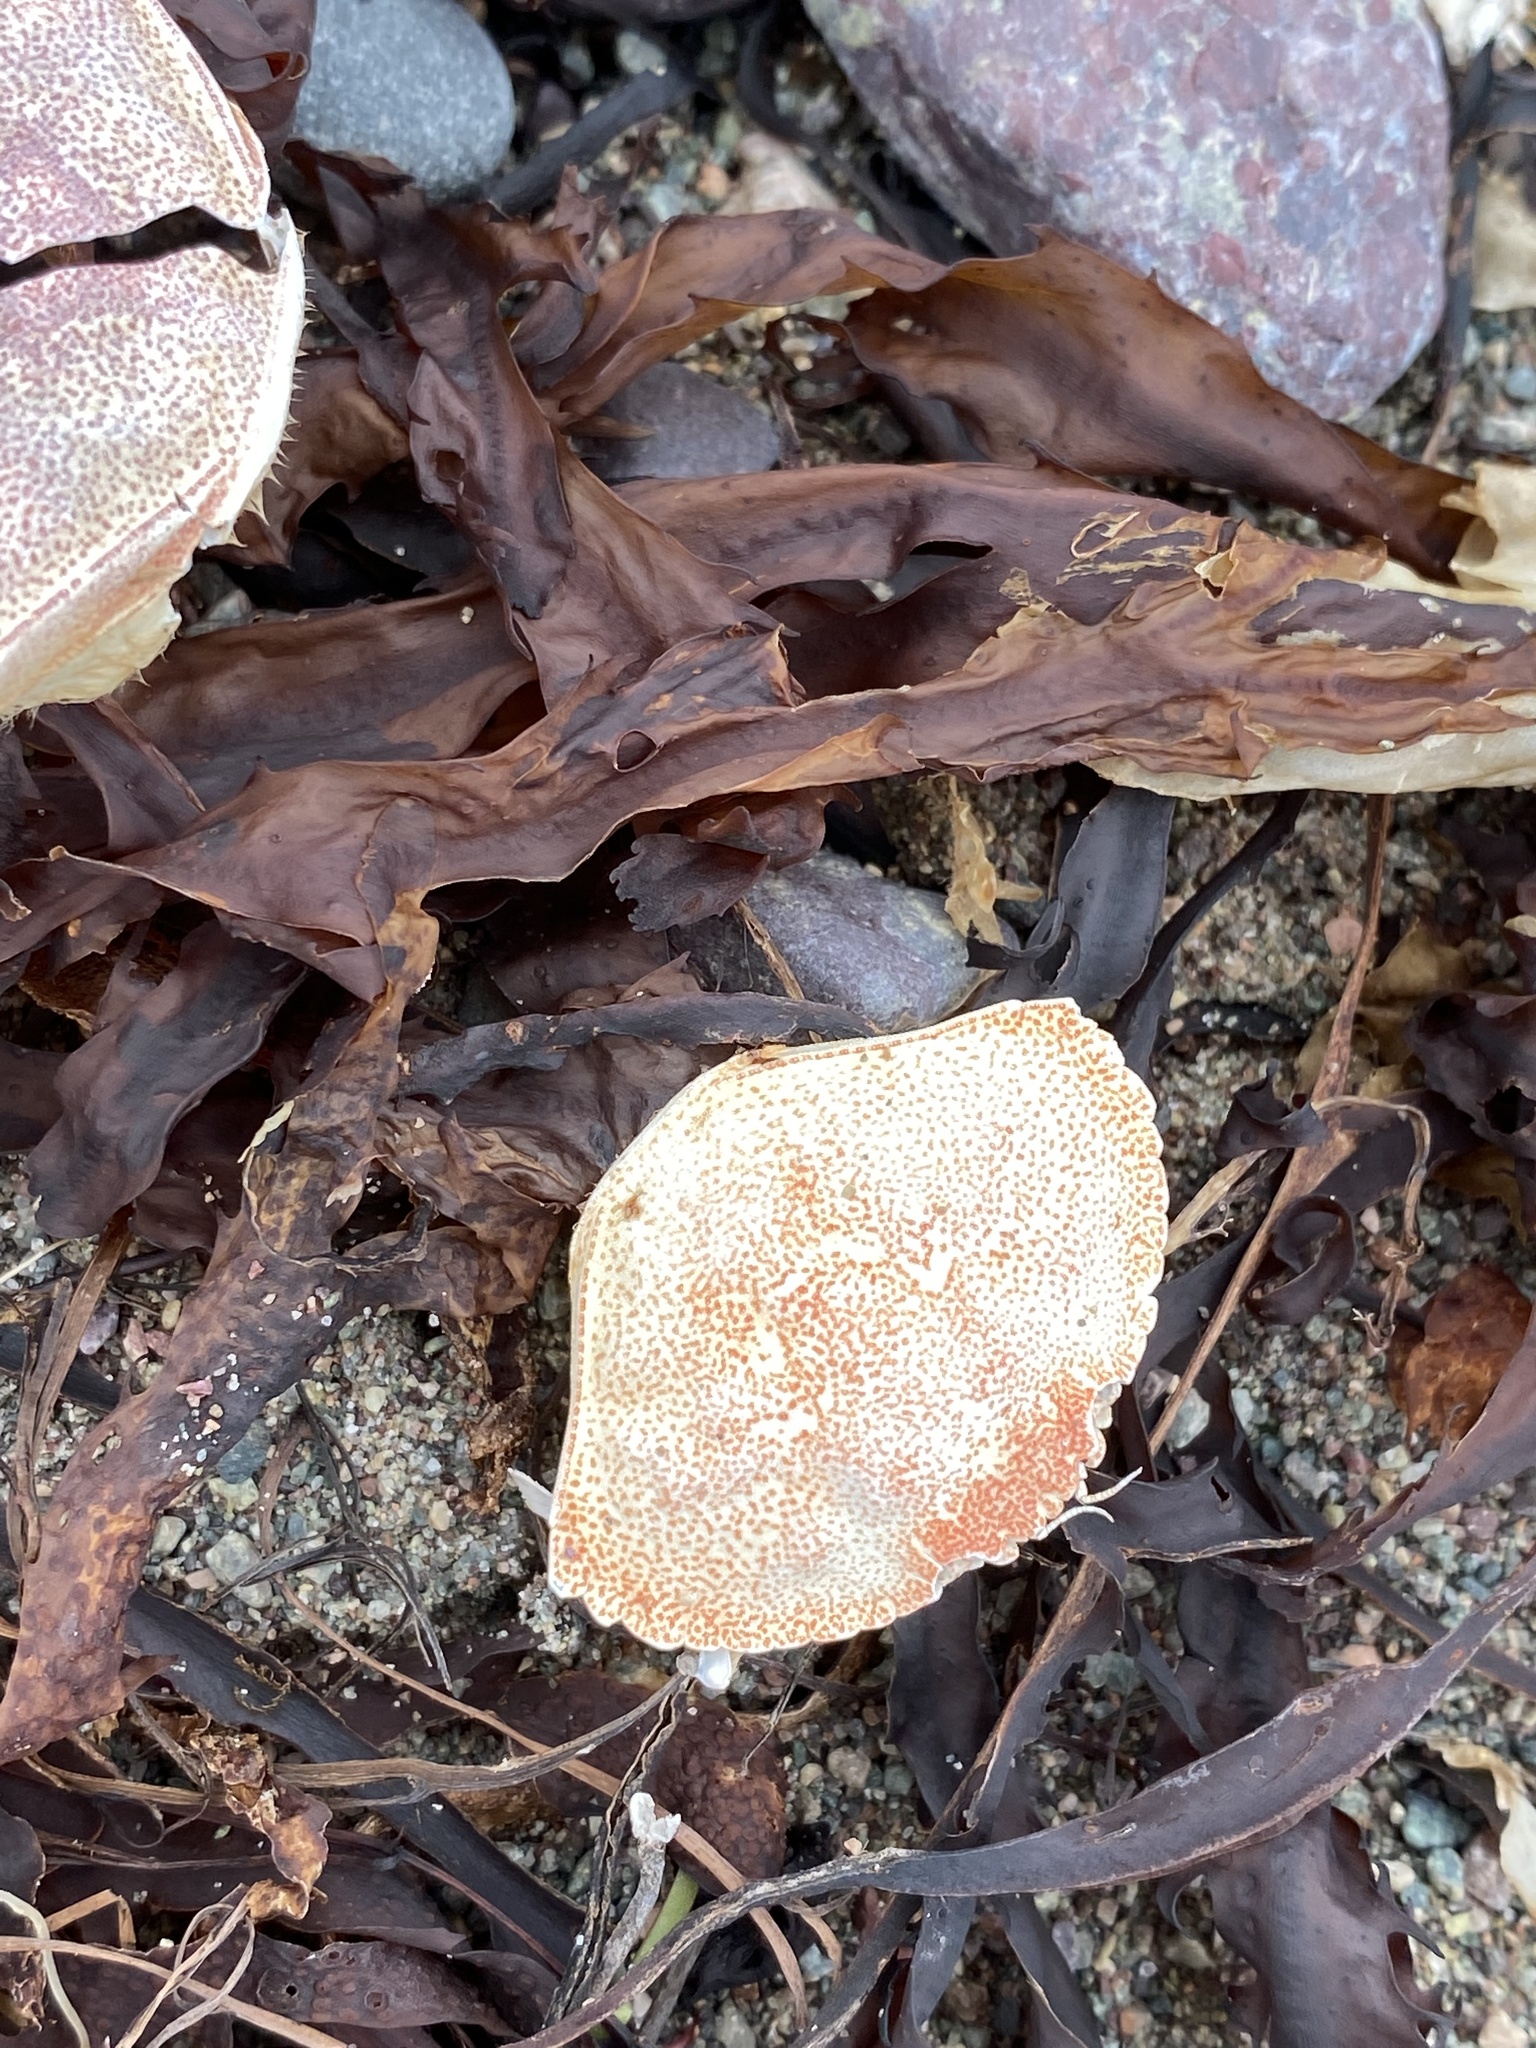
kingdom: Animalia
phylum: Arthropoda
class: Malacostraca
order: Decapoda
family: Cancridae
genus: Cancer
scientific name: Cancer irroratus
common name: Atlantic rock crab
